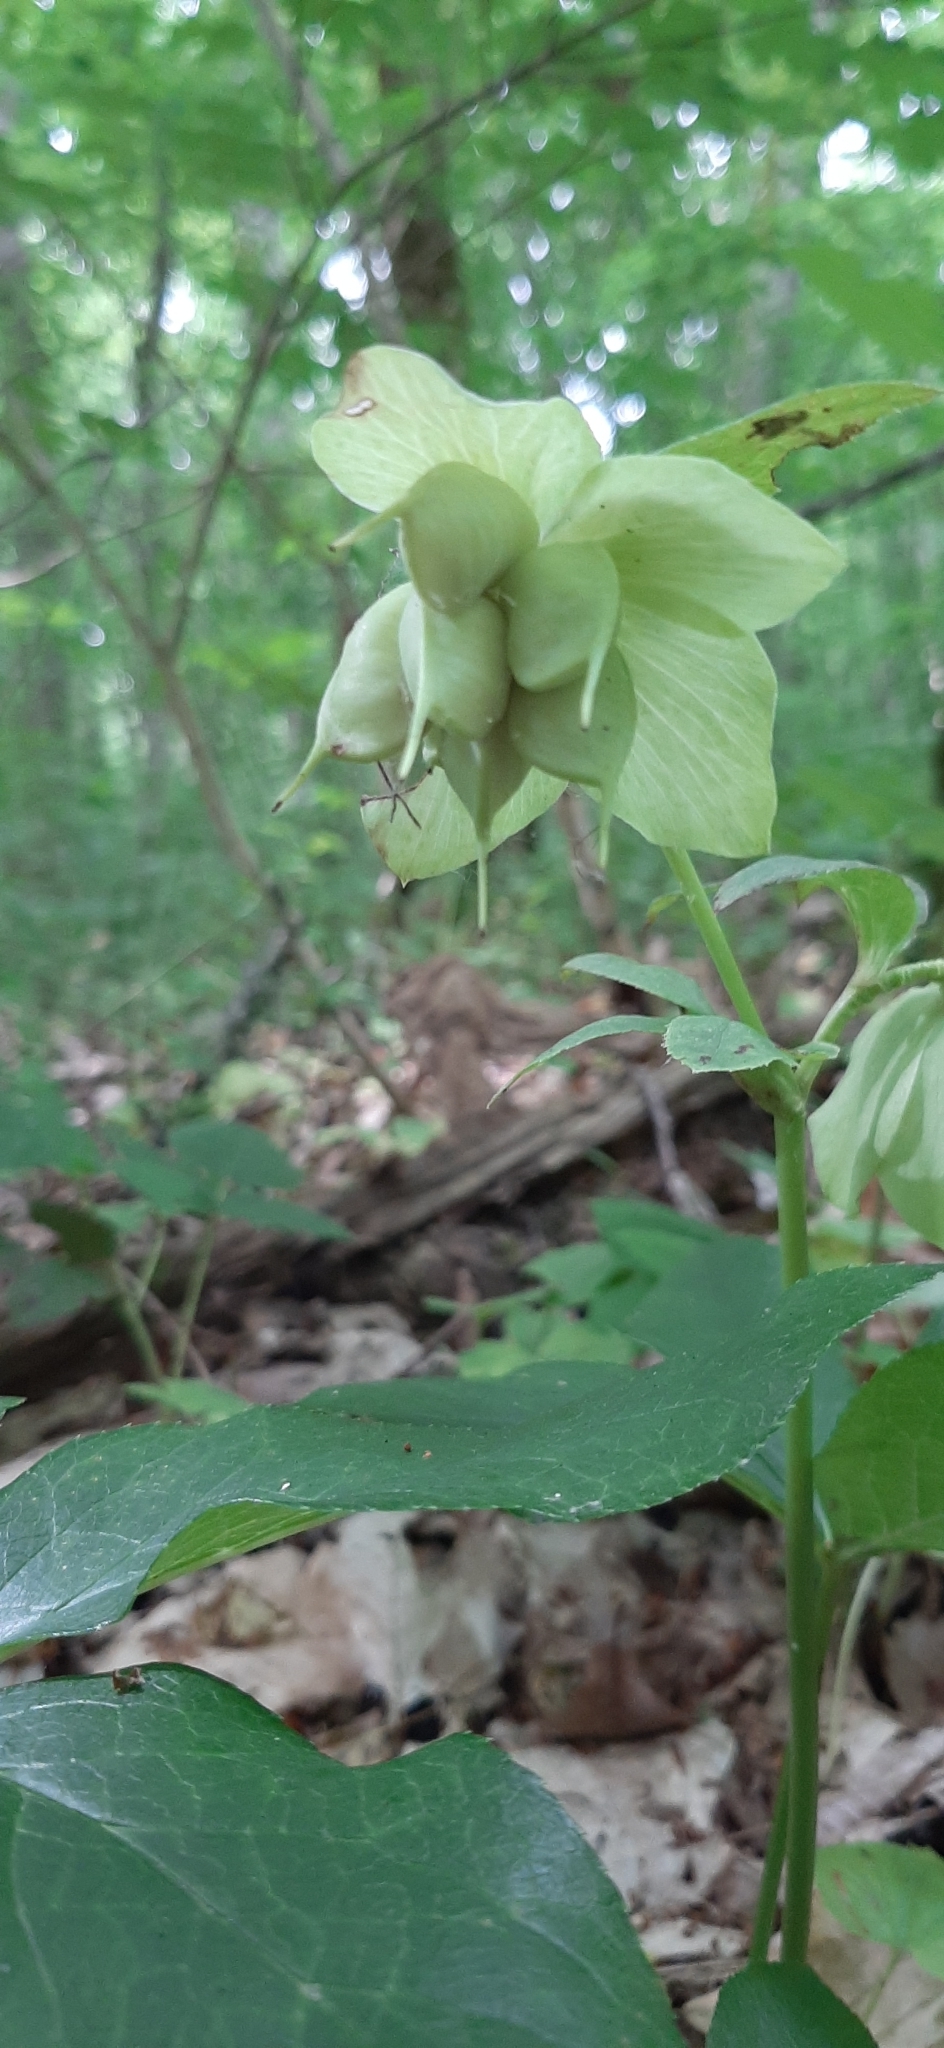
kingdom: Plantae
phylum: Tracheophyta
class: Magnoliopsida
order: Ranunculales
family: Ranunculaceae
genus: Helleborus
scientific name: Helleborus orientalis
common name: Lenten-rose
